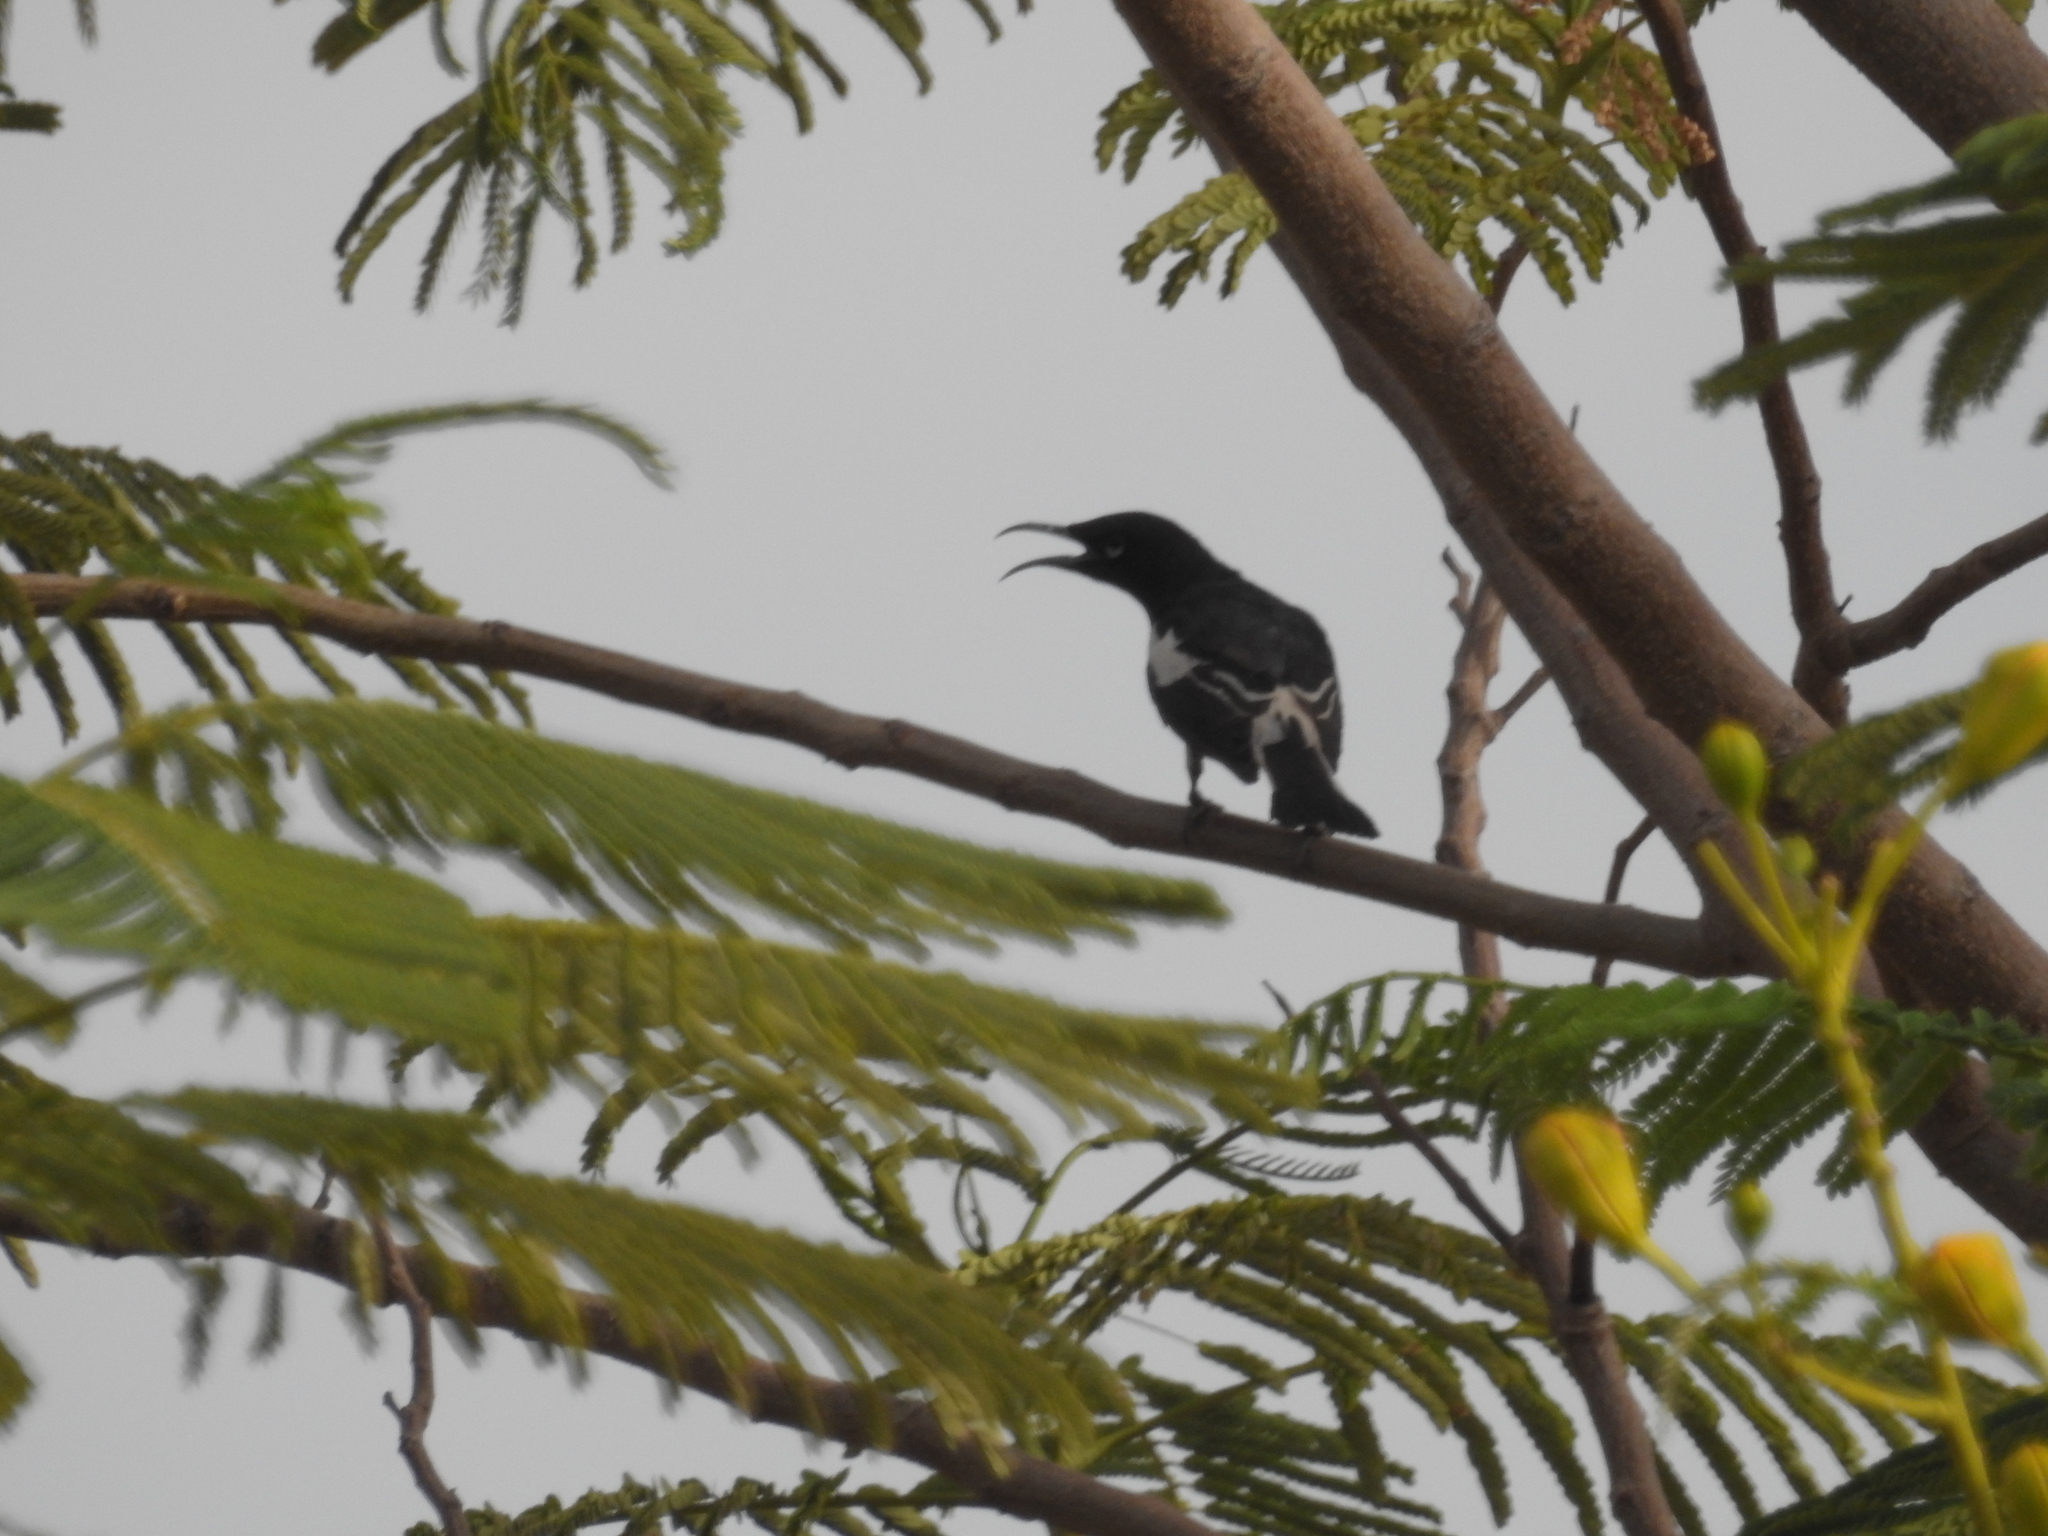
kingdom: Animalia
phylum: Chordata
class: Aves
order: Passeriformes
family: Meliphagidae
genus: Certhionyx
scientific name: Certhionyx variegatus
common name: Pied honeyeater
